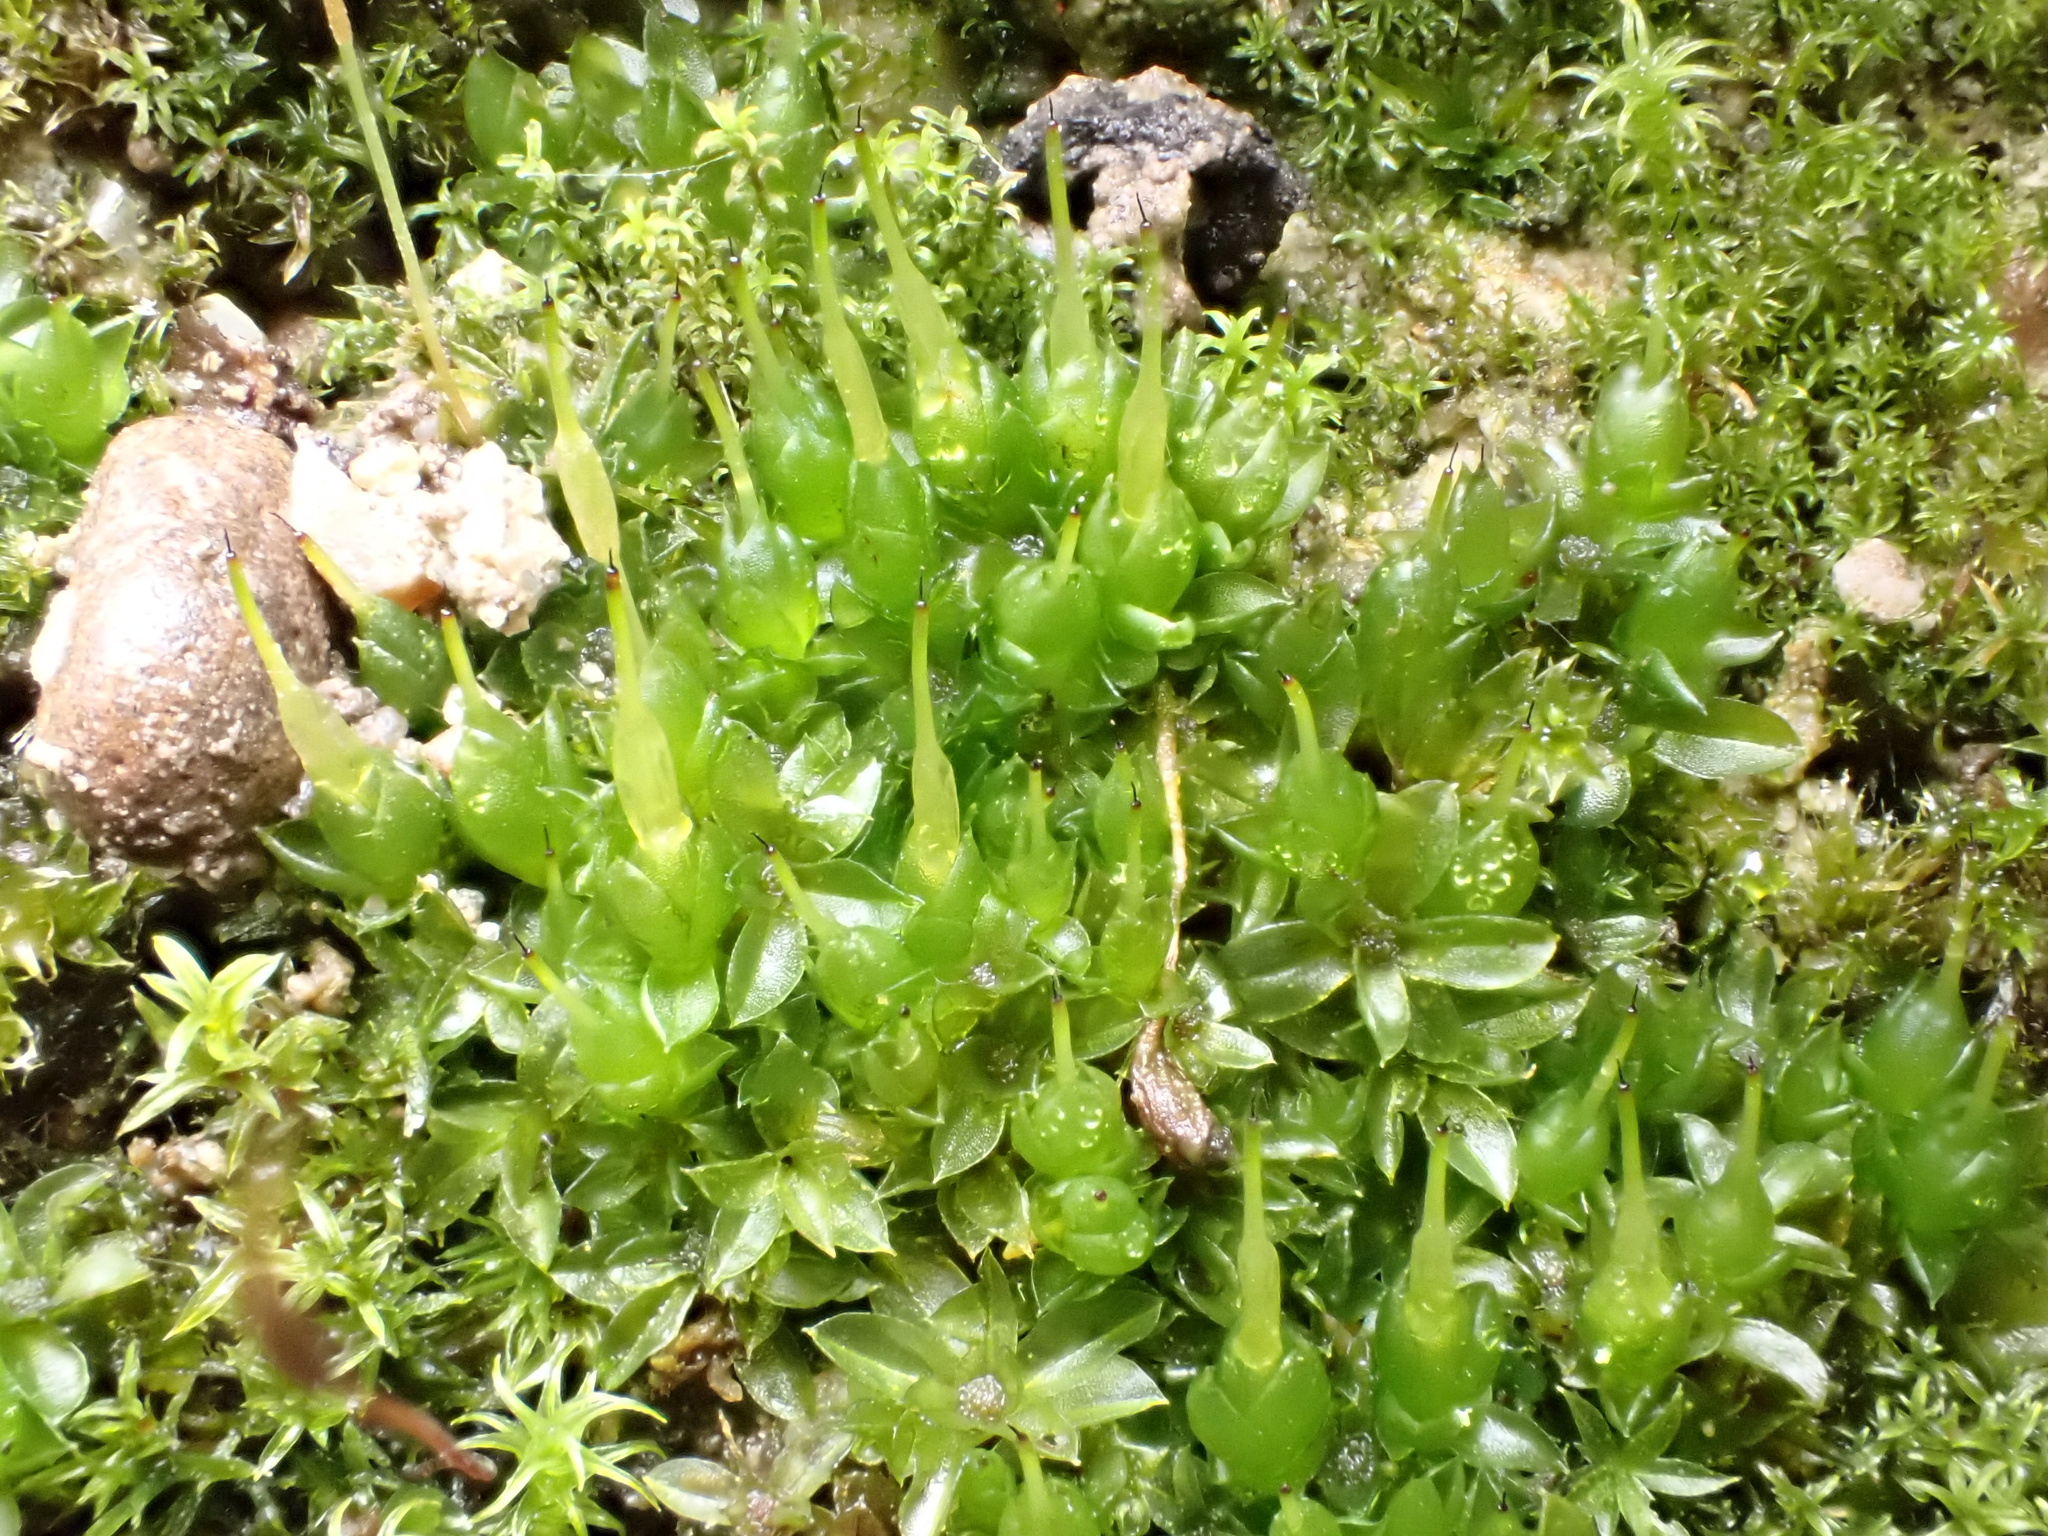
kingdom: Plantae
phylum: Bryophyta
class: Bryopsida
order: Funariales
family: Funariaceae
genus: Funaria
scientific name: Funaria hygrometrica
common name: Common cord moss
